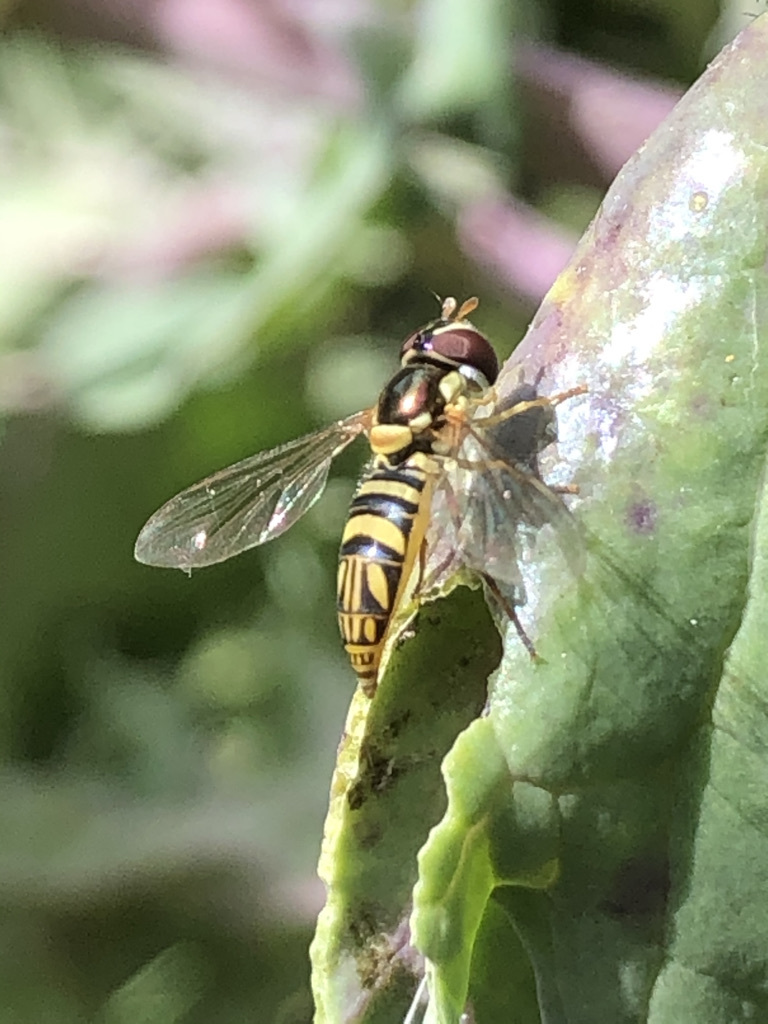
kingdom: Animalia
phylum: Arthropoda
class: Insecta
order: Diptera
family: Syrphidae
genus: Allograpta
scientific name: Allograpta obliqua
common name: Common oblique syrphid
